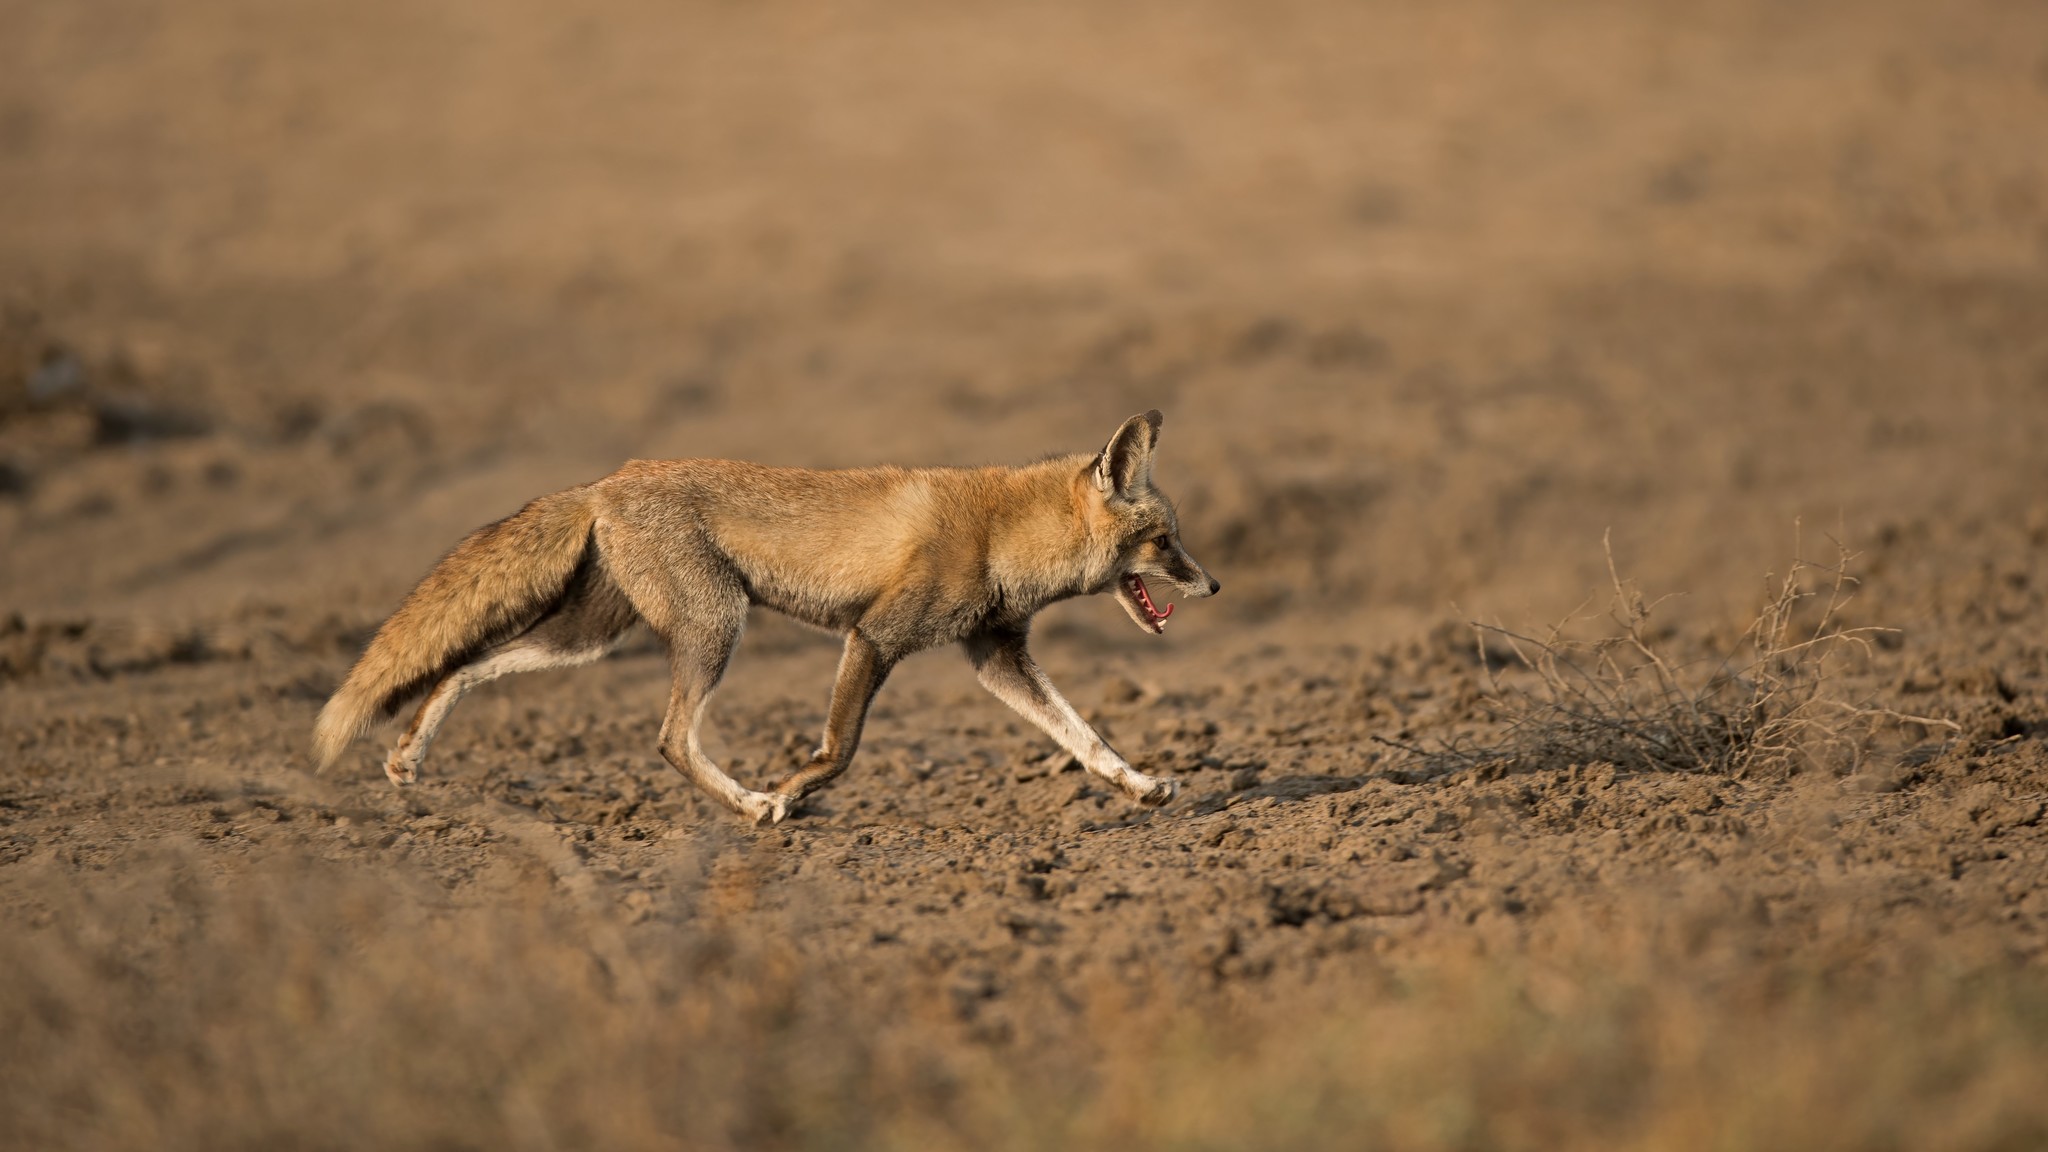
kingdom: Animalia
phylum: Chordata
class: Mammalia
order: Carnivora
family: Canidae
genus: Vulpes
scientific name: Vulpes vulpes
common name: Red fox
